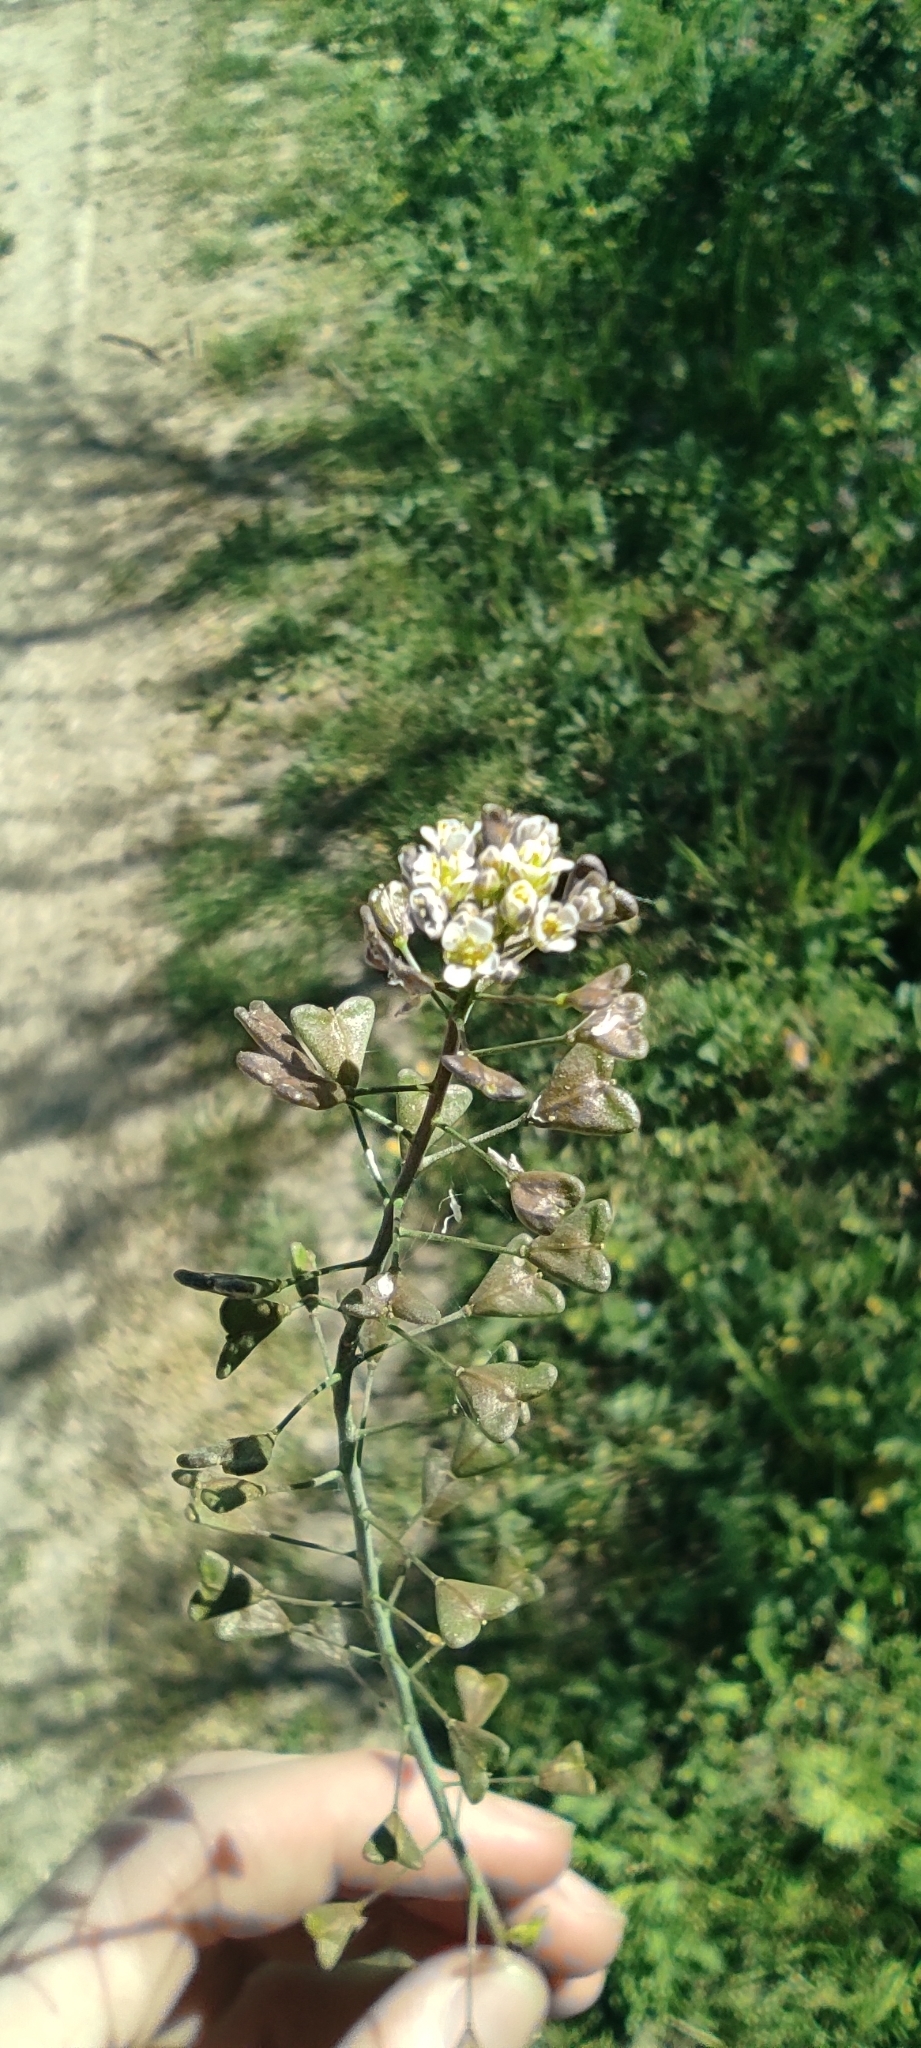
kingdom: Plantae
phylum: Tracheophyta
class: Magnoliopsida
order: Brassicales
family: Brassicaceae
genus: Capsella
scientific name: Capsella bursa-pastoris
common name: Shepherd's purse
